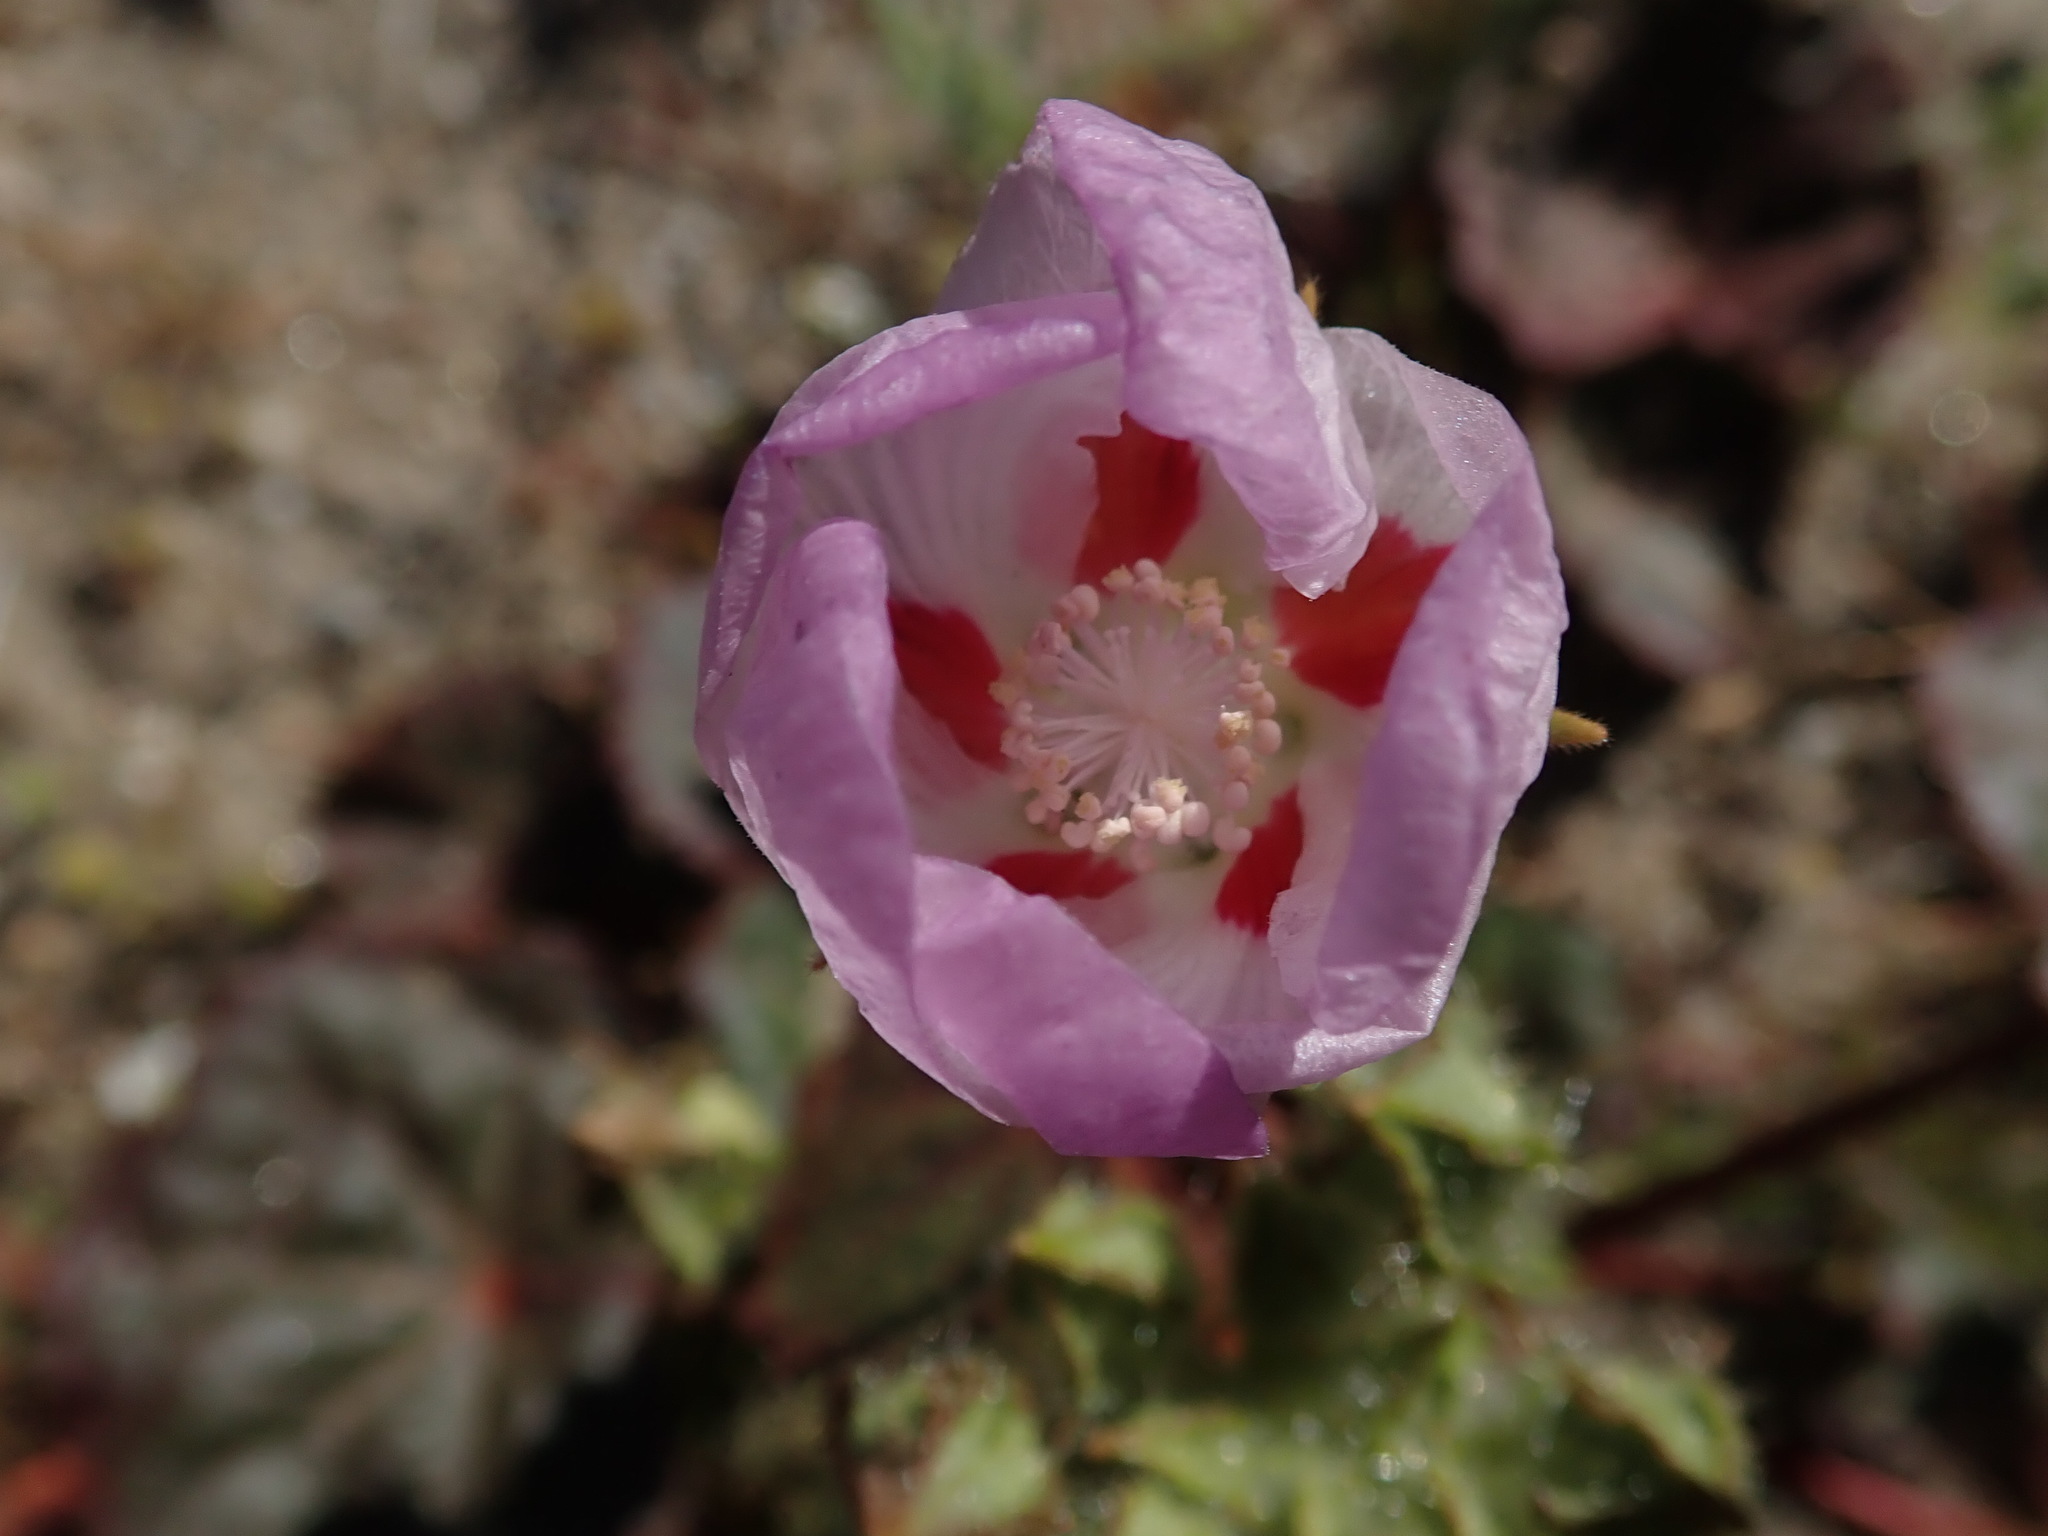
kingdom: Plantae
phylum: Tracheophyta
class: Magnoliopsida
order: Malvales
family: Malvaceae
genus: Eremalche
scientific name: Eremalche rotundifolia
